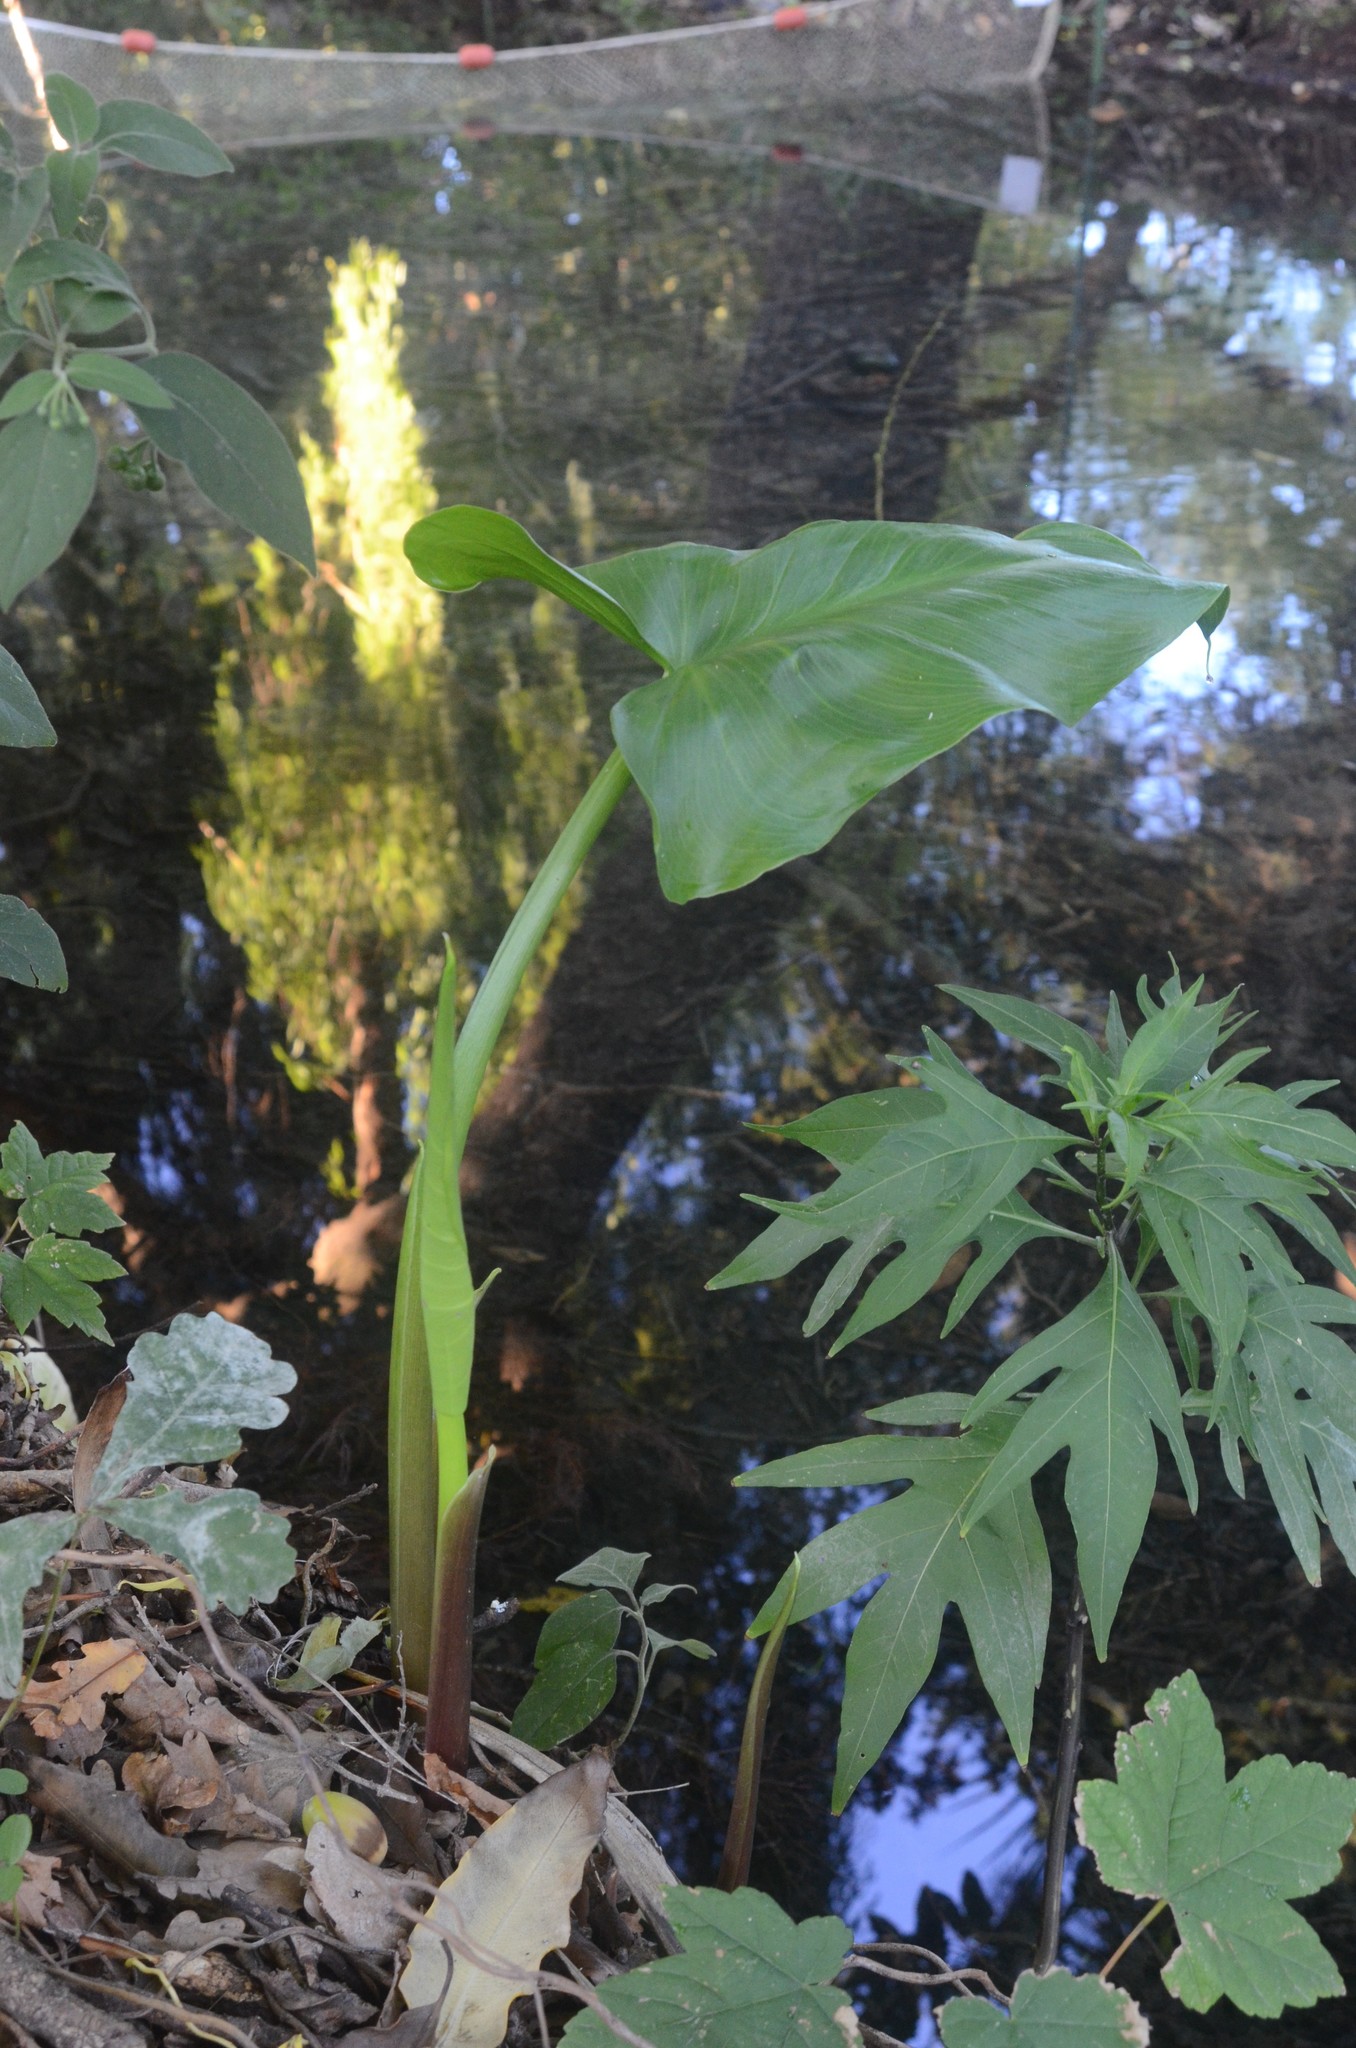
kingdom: Plantae
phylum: Tracheophyta
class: Liliopsida
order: Alismatales
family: Araceae
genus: Zantedeschia
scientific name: Zantedeschia aethiopica
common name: Altar-lily
